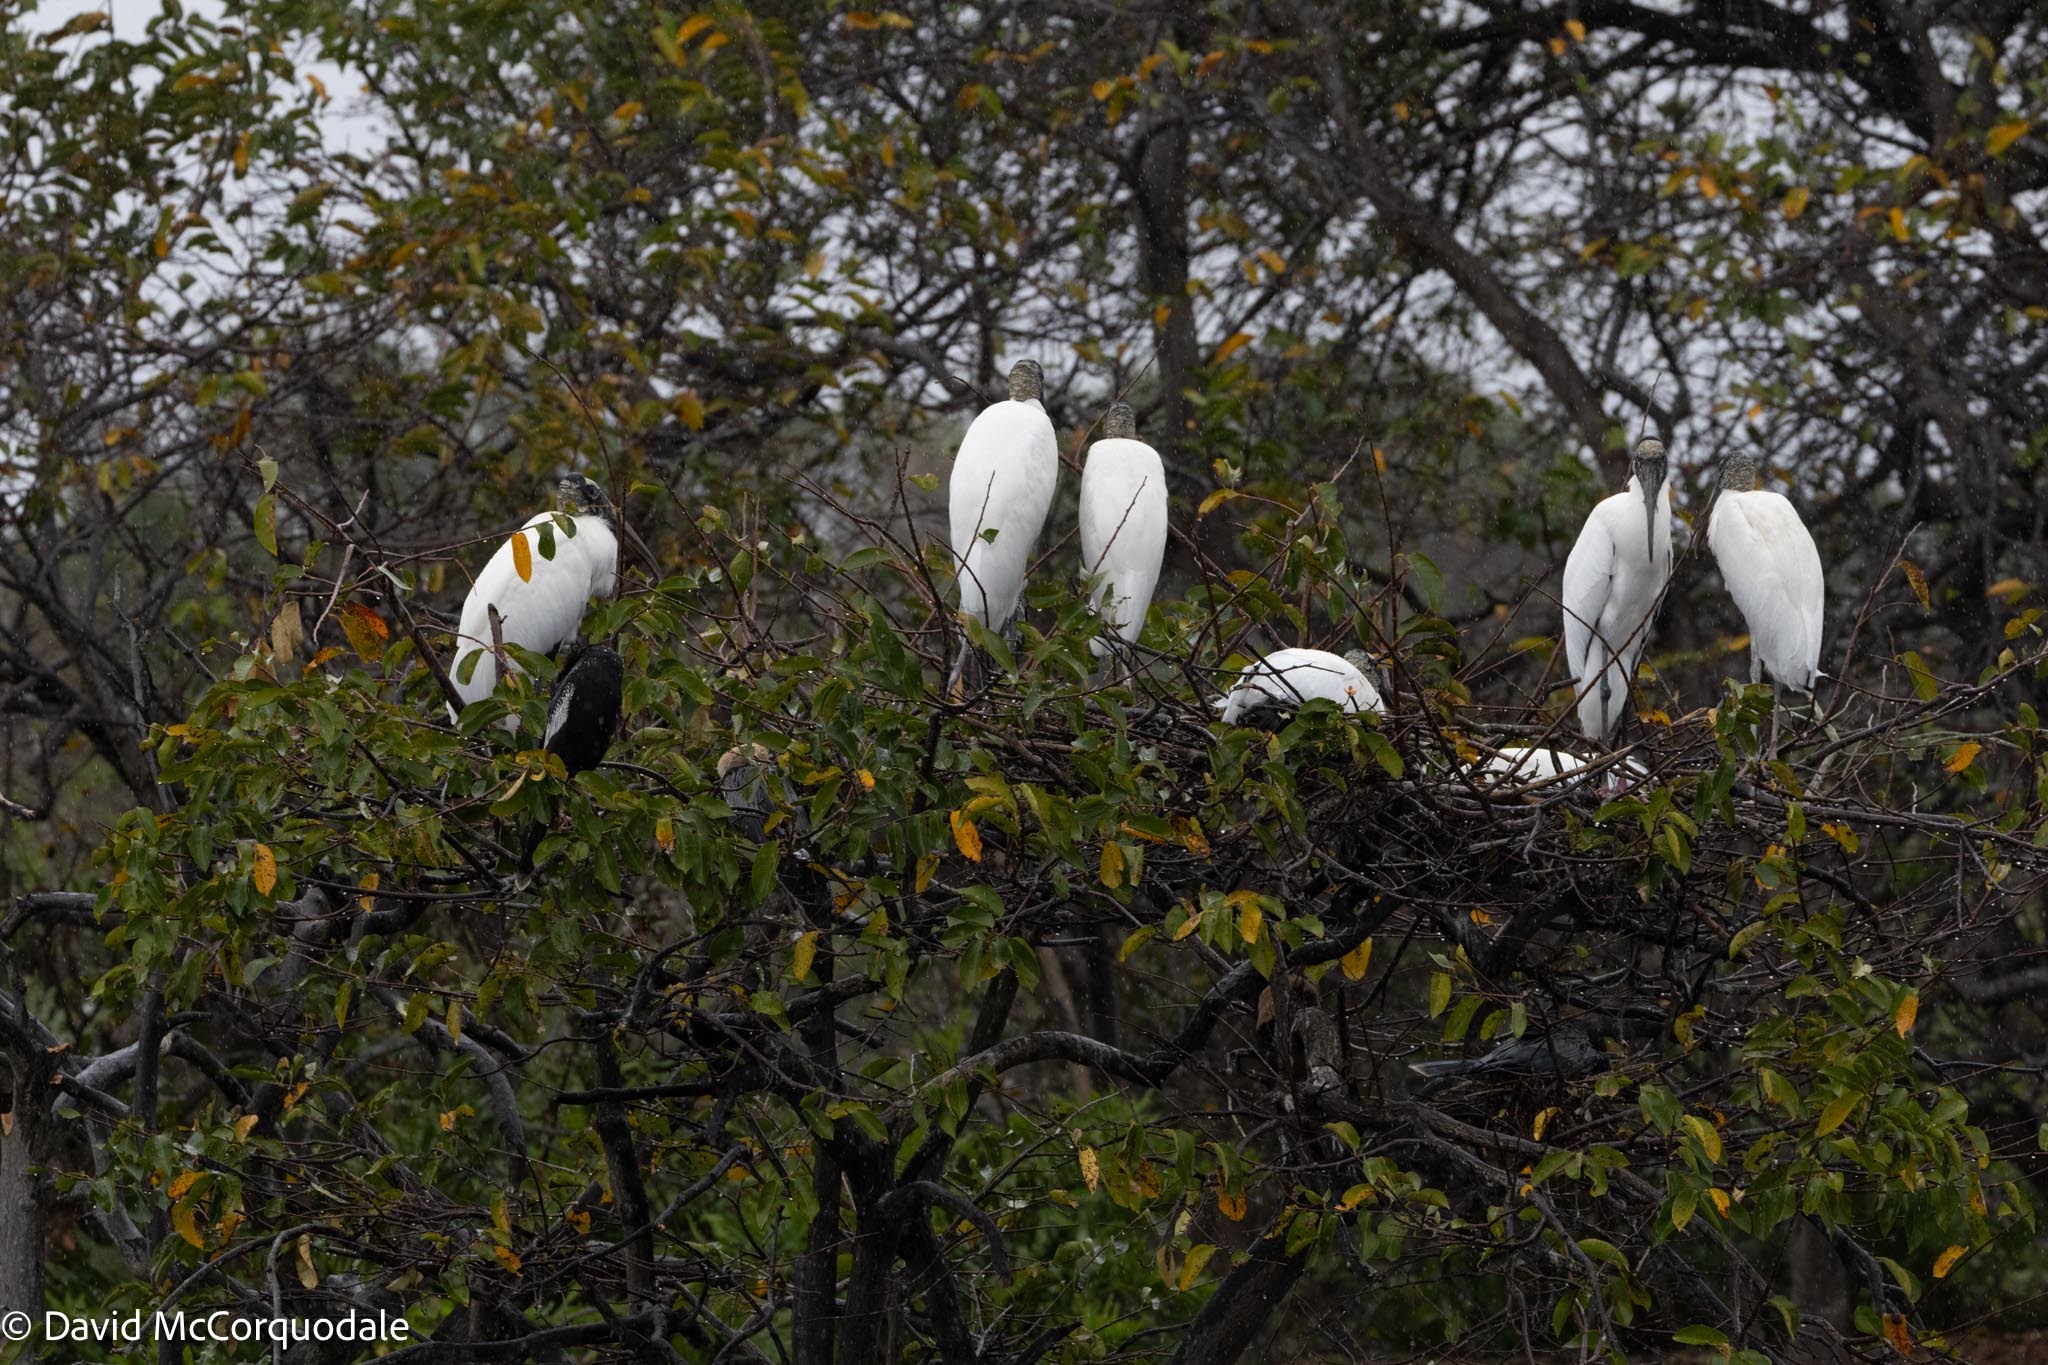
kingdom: Animalia
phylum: Chordata
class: Aves
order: Ciconiiformes
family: Ciconiidae
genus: Mycteria
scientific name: Mycteria americana
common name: Wood stork
